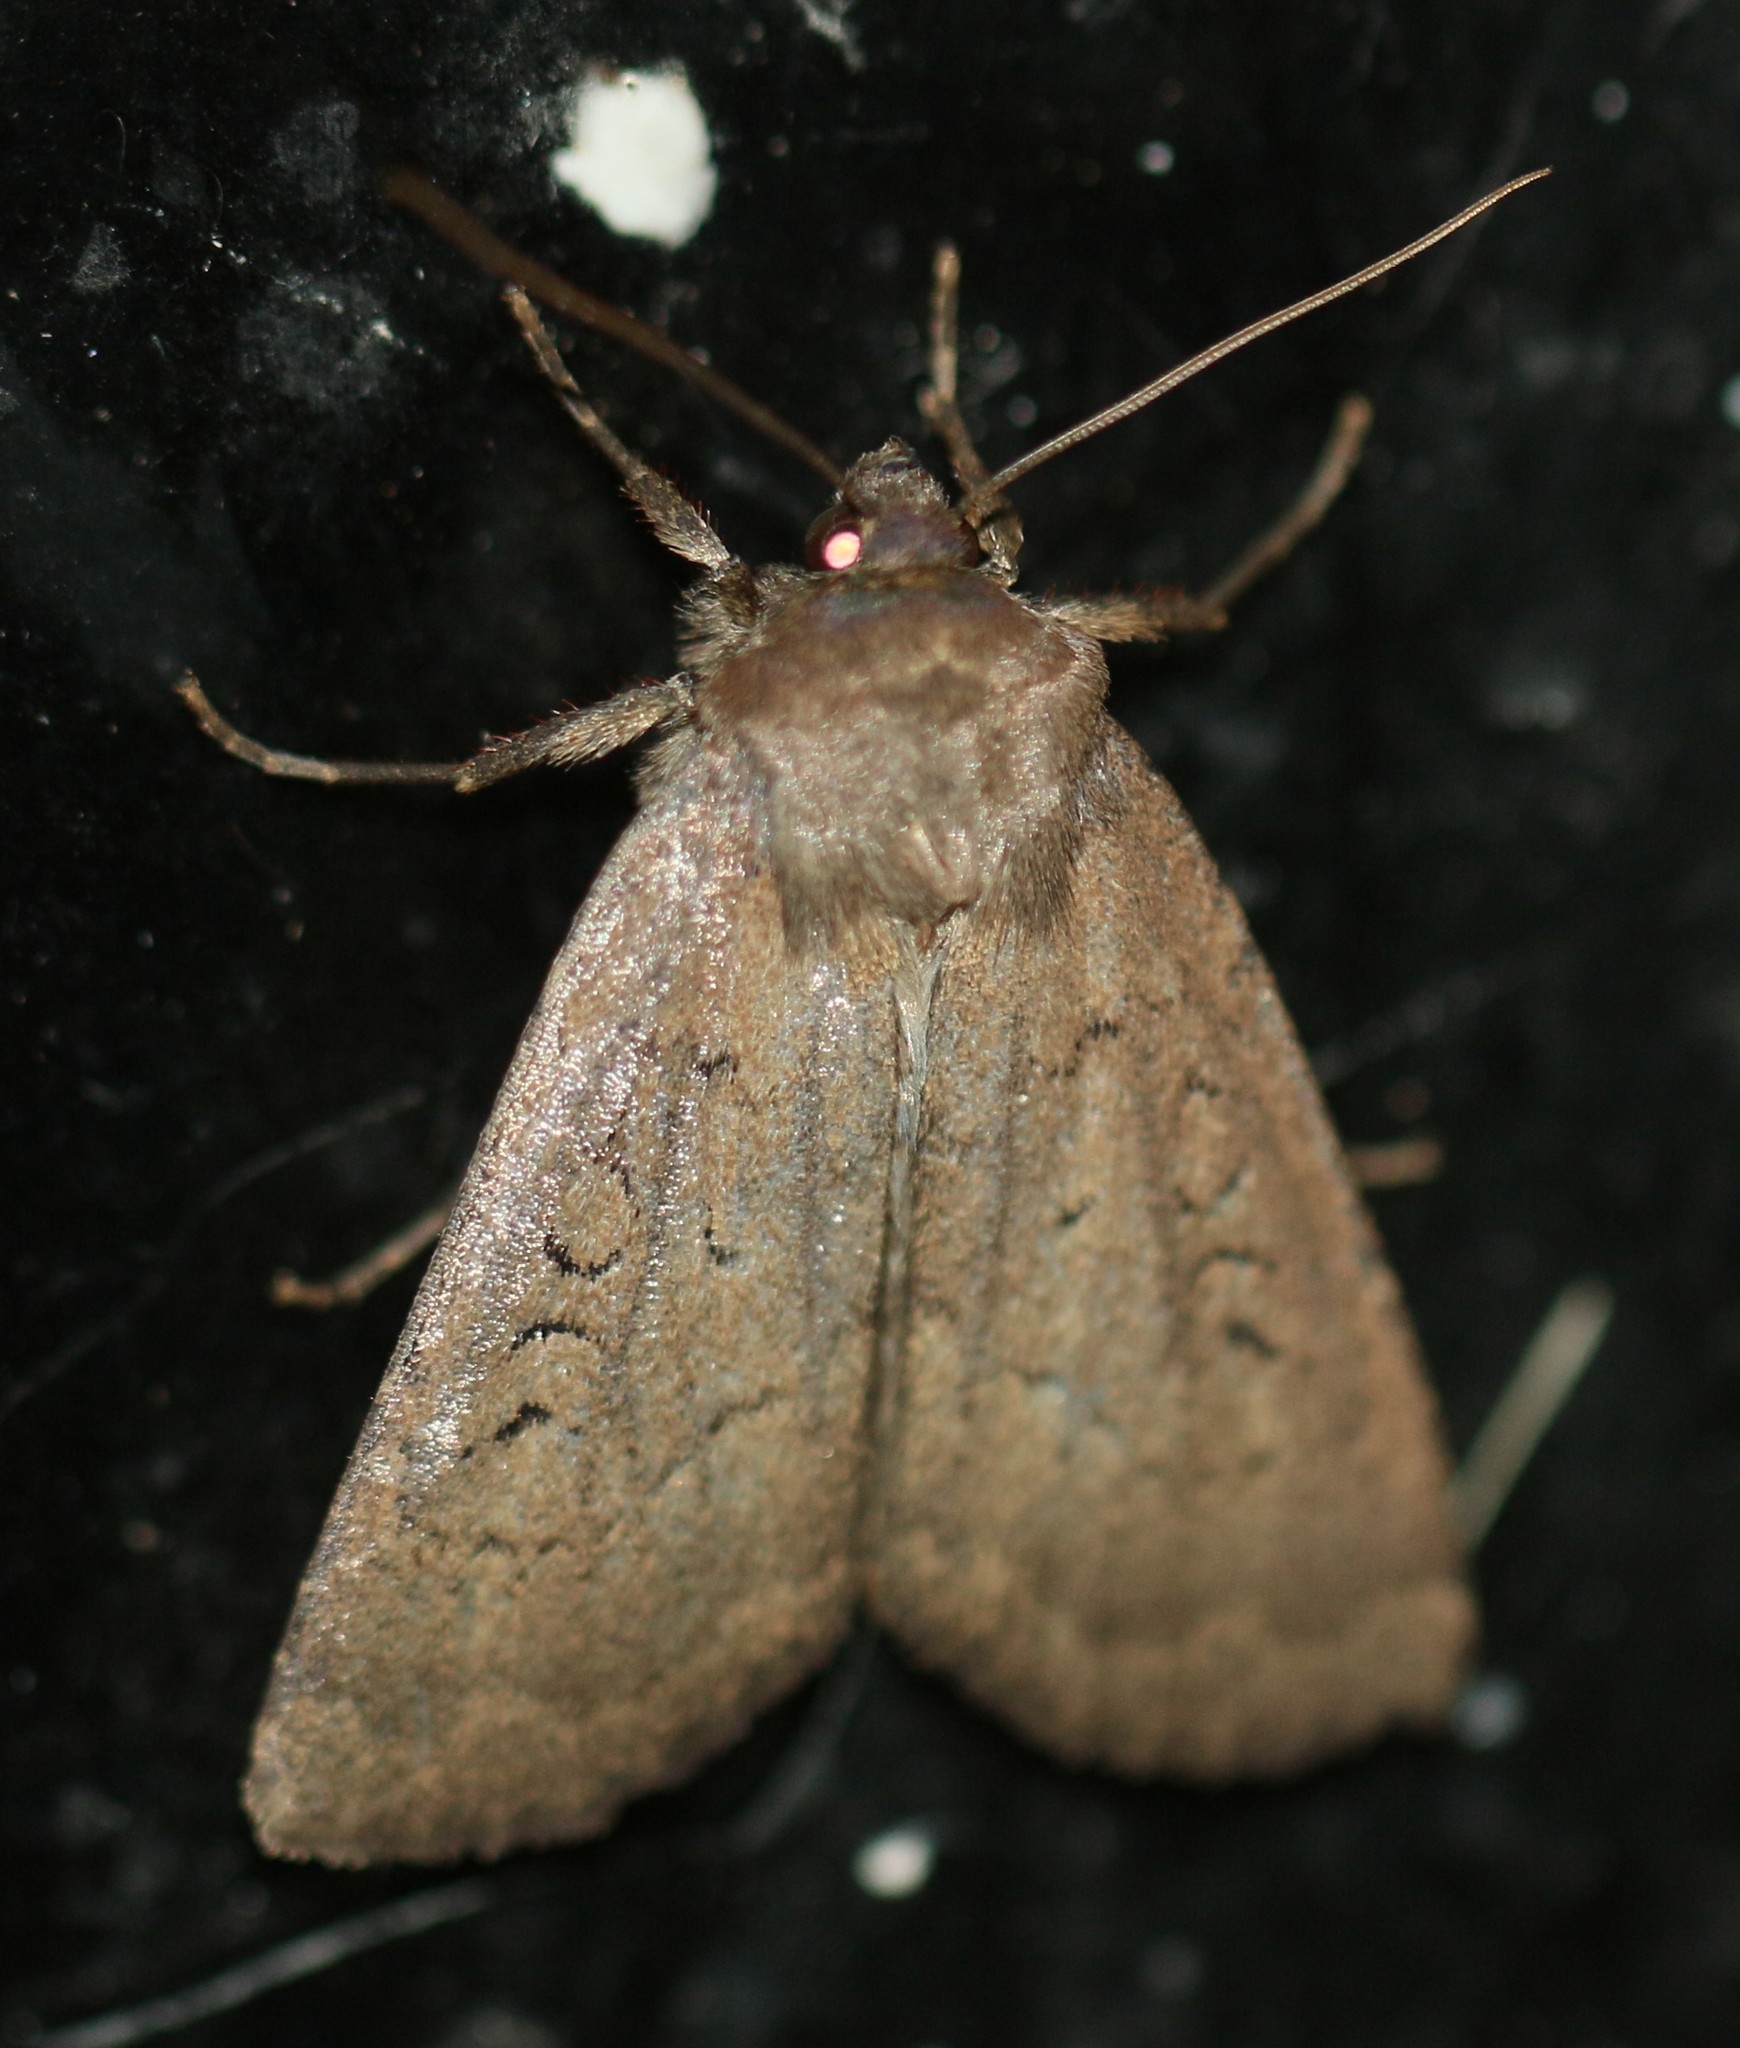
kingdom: Animalia
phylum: Arthropoda
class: Insecta
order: Lepidoptera
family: Noctuidae
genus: Graphiphora
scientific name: Graphiphora augur
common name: Double dart
